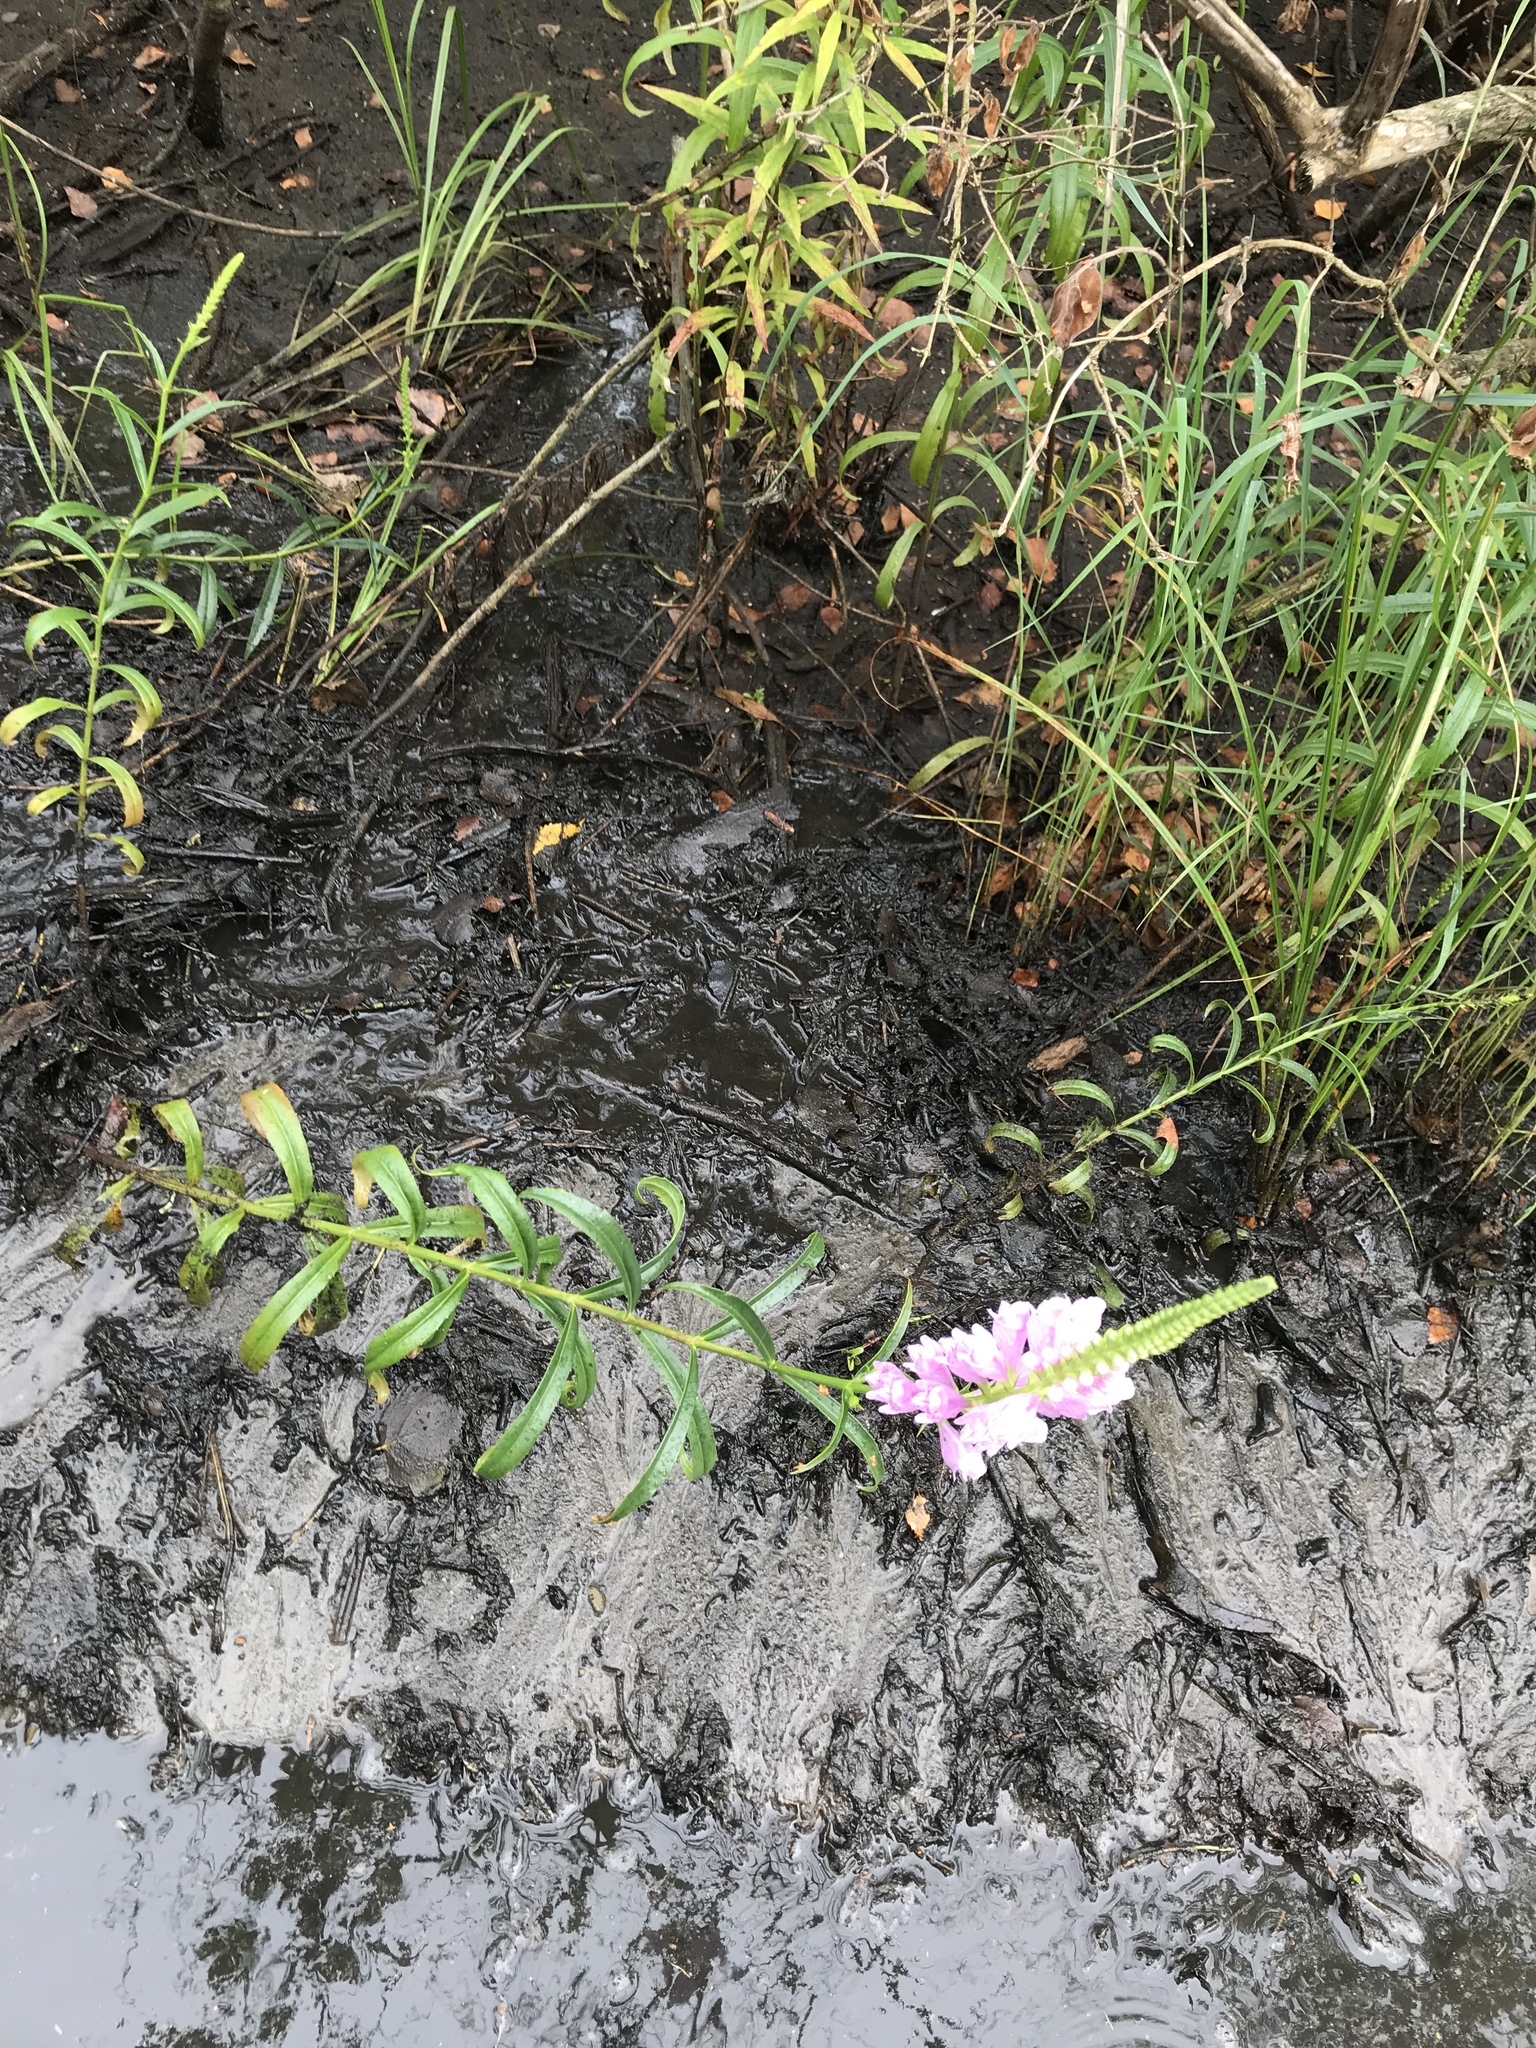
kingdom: Plantae
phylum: Tracheophyta
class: Magnoliopsida
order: Lamiales
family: Lamiaceae
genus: Physostegia
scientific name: Physostegia virginiana
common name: Obedient-plant
